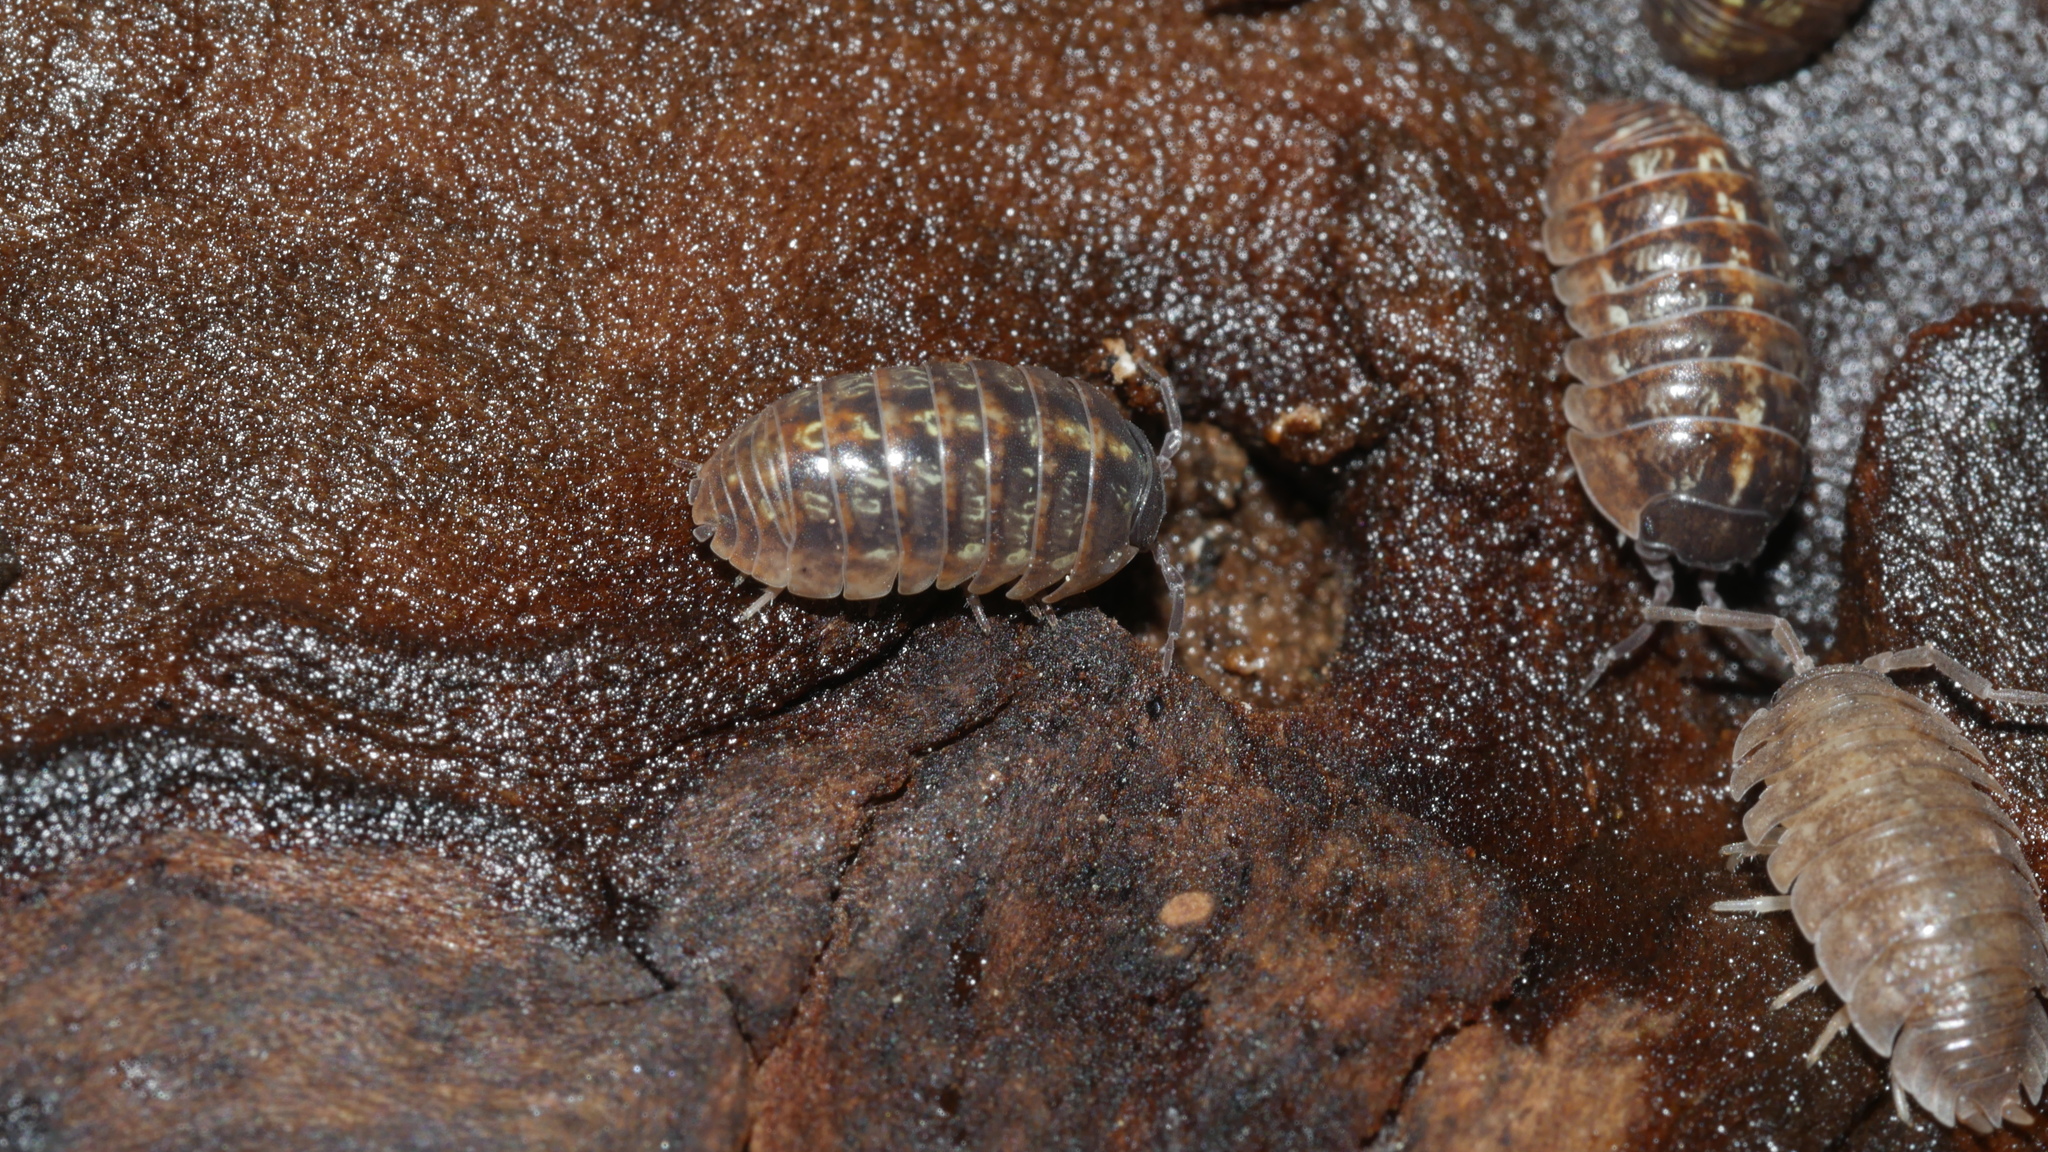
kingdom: Animalia
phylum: Arthropoda
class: Malacostraca
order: Isopoda
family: Armadillidiidae
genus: Armadillidium
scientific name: Armadillidium vulgare
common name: Common pill woodlouse
